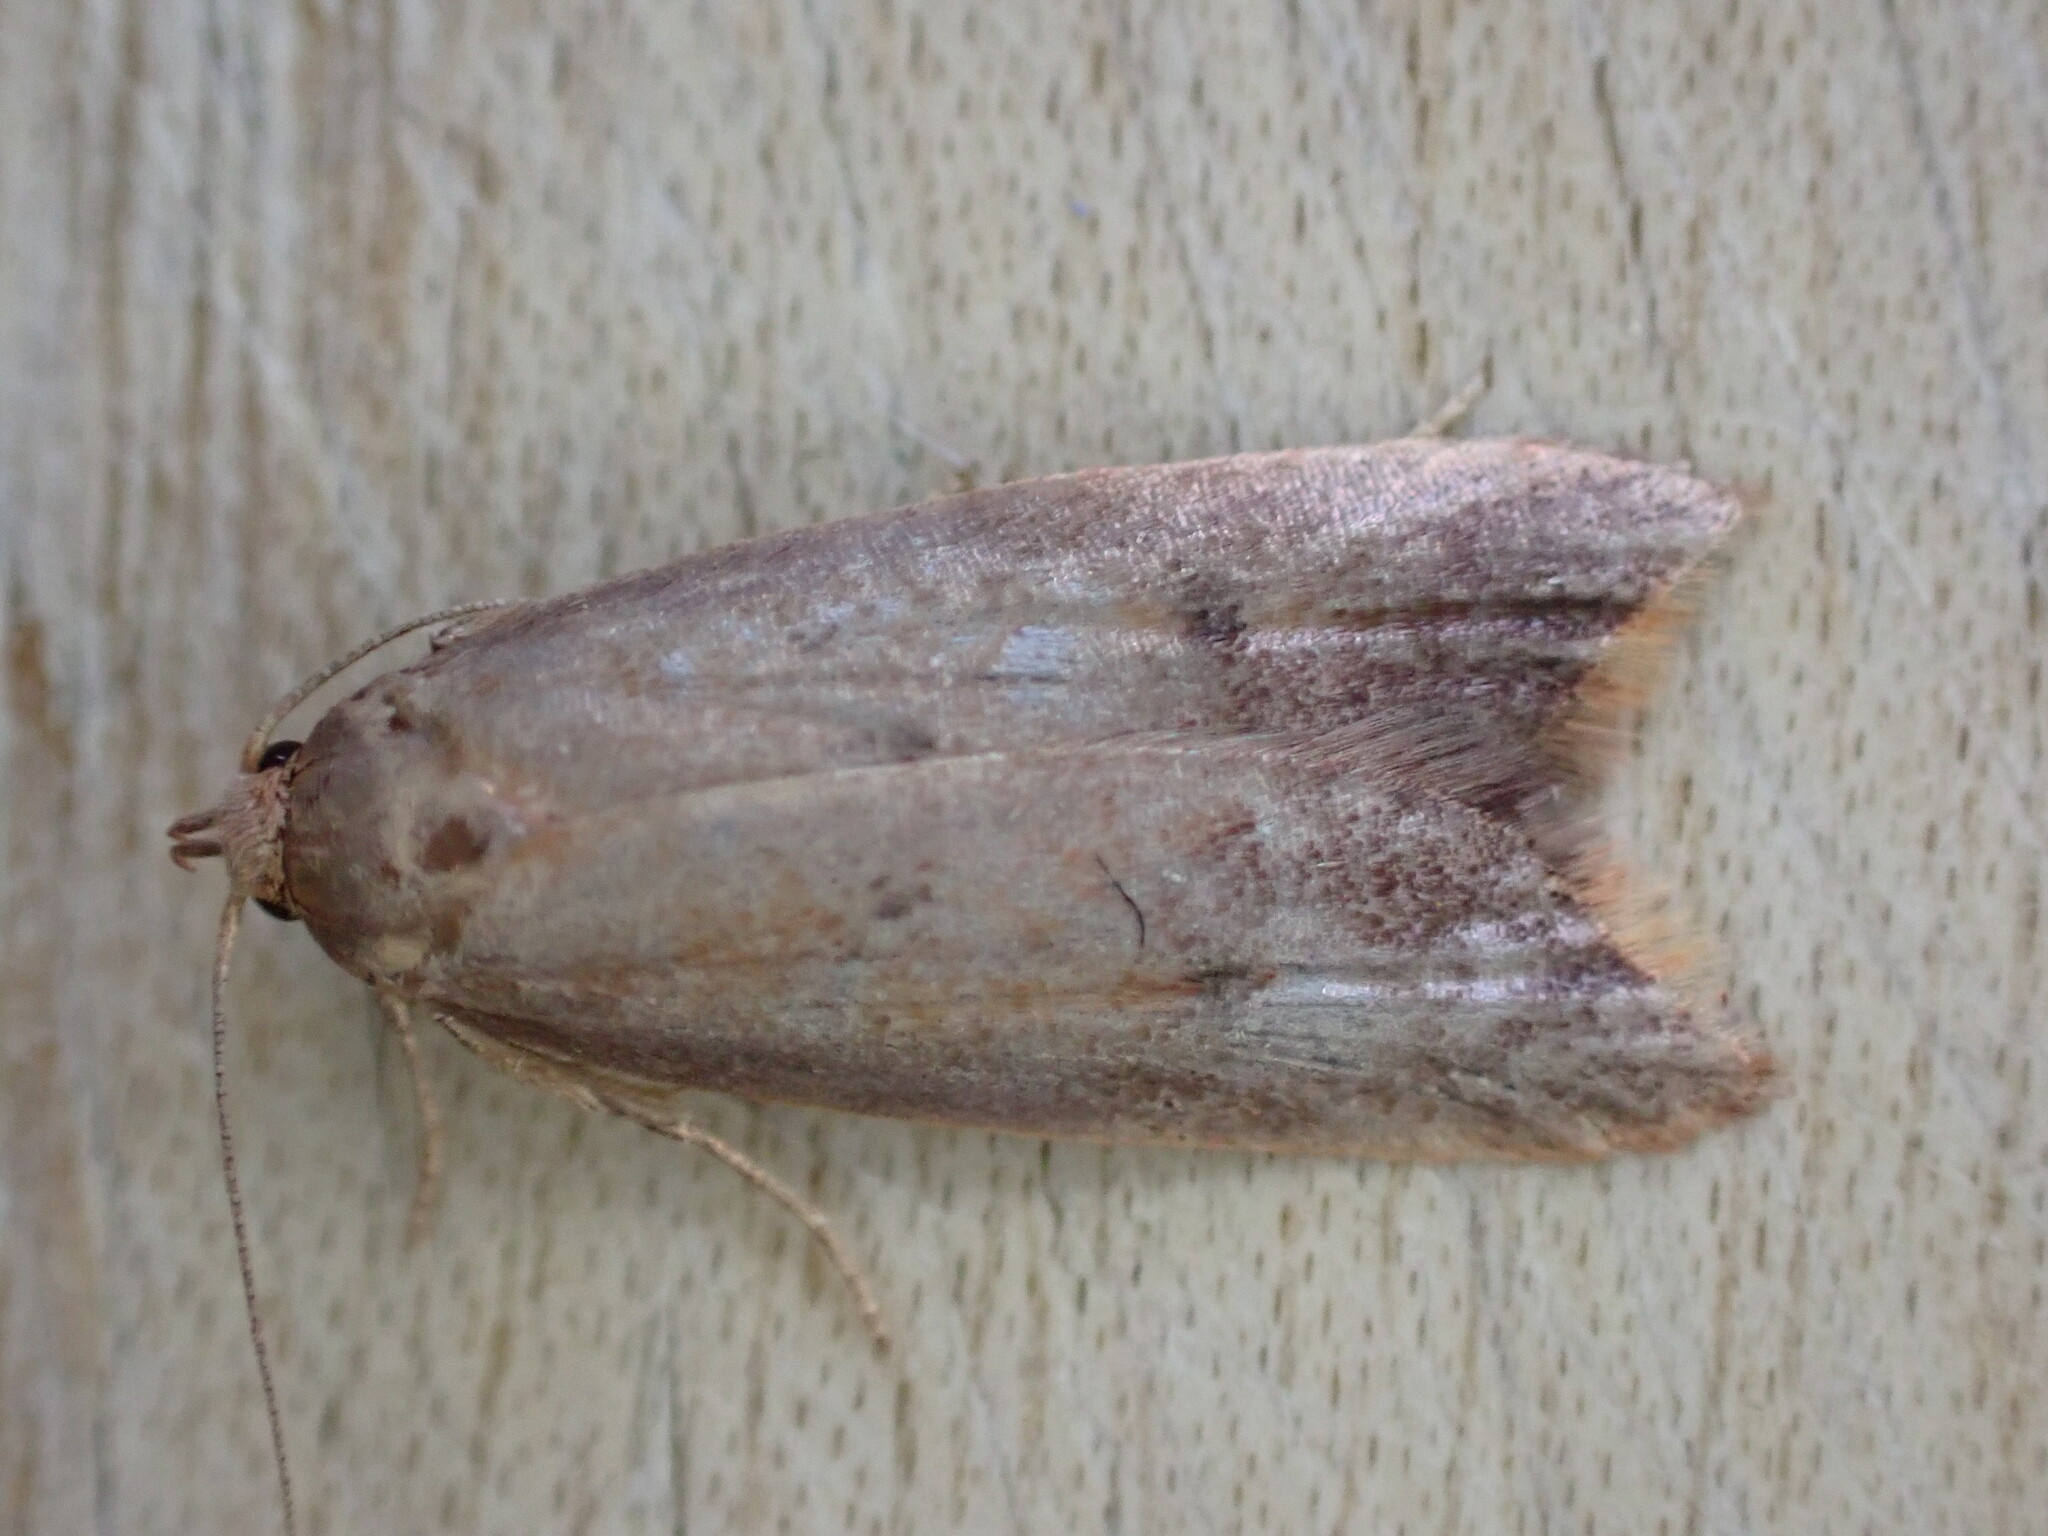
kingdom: Animalia
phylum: Arthropoda
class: Insecta
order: Lepidoptera
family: Oecophoridae
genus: Tachystola
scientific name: Tachystola acroxantha
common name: Ruddy streak
